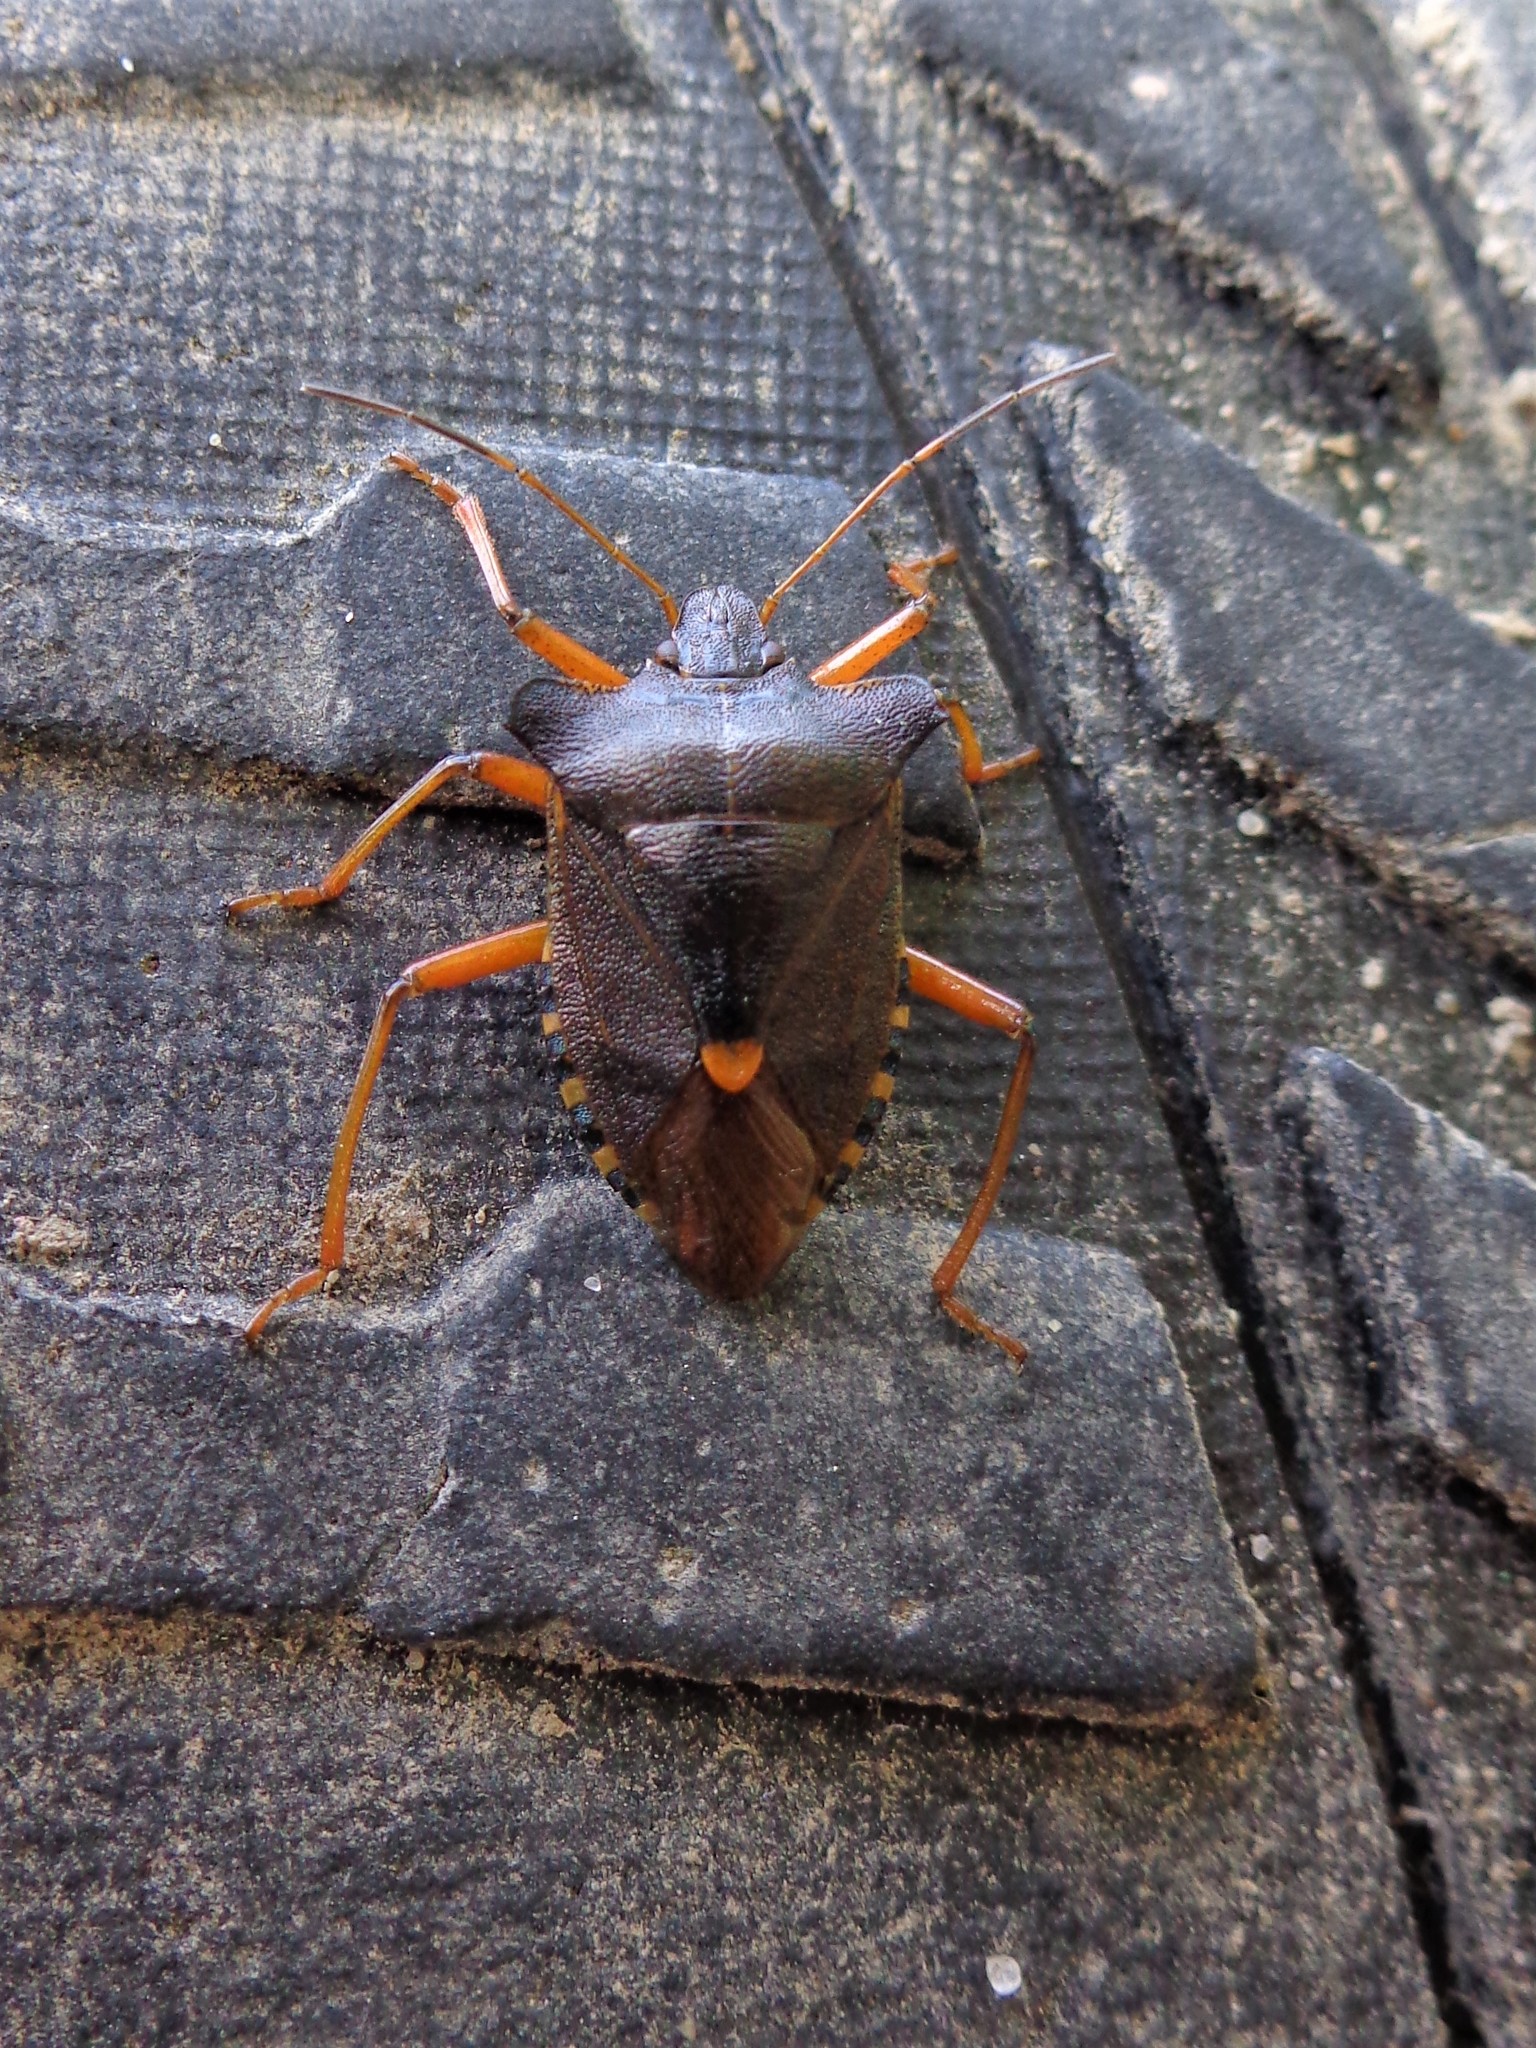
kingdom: Animalia
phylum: Arthropoda
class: Insecta
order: Hemiptera
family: Pentatomidae
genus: Pentatoma
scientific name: Pentatoma rufipes
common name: Forest bug
